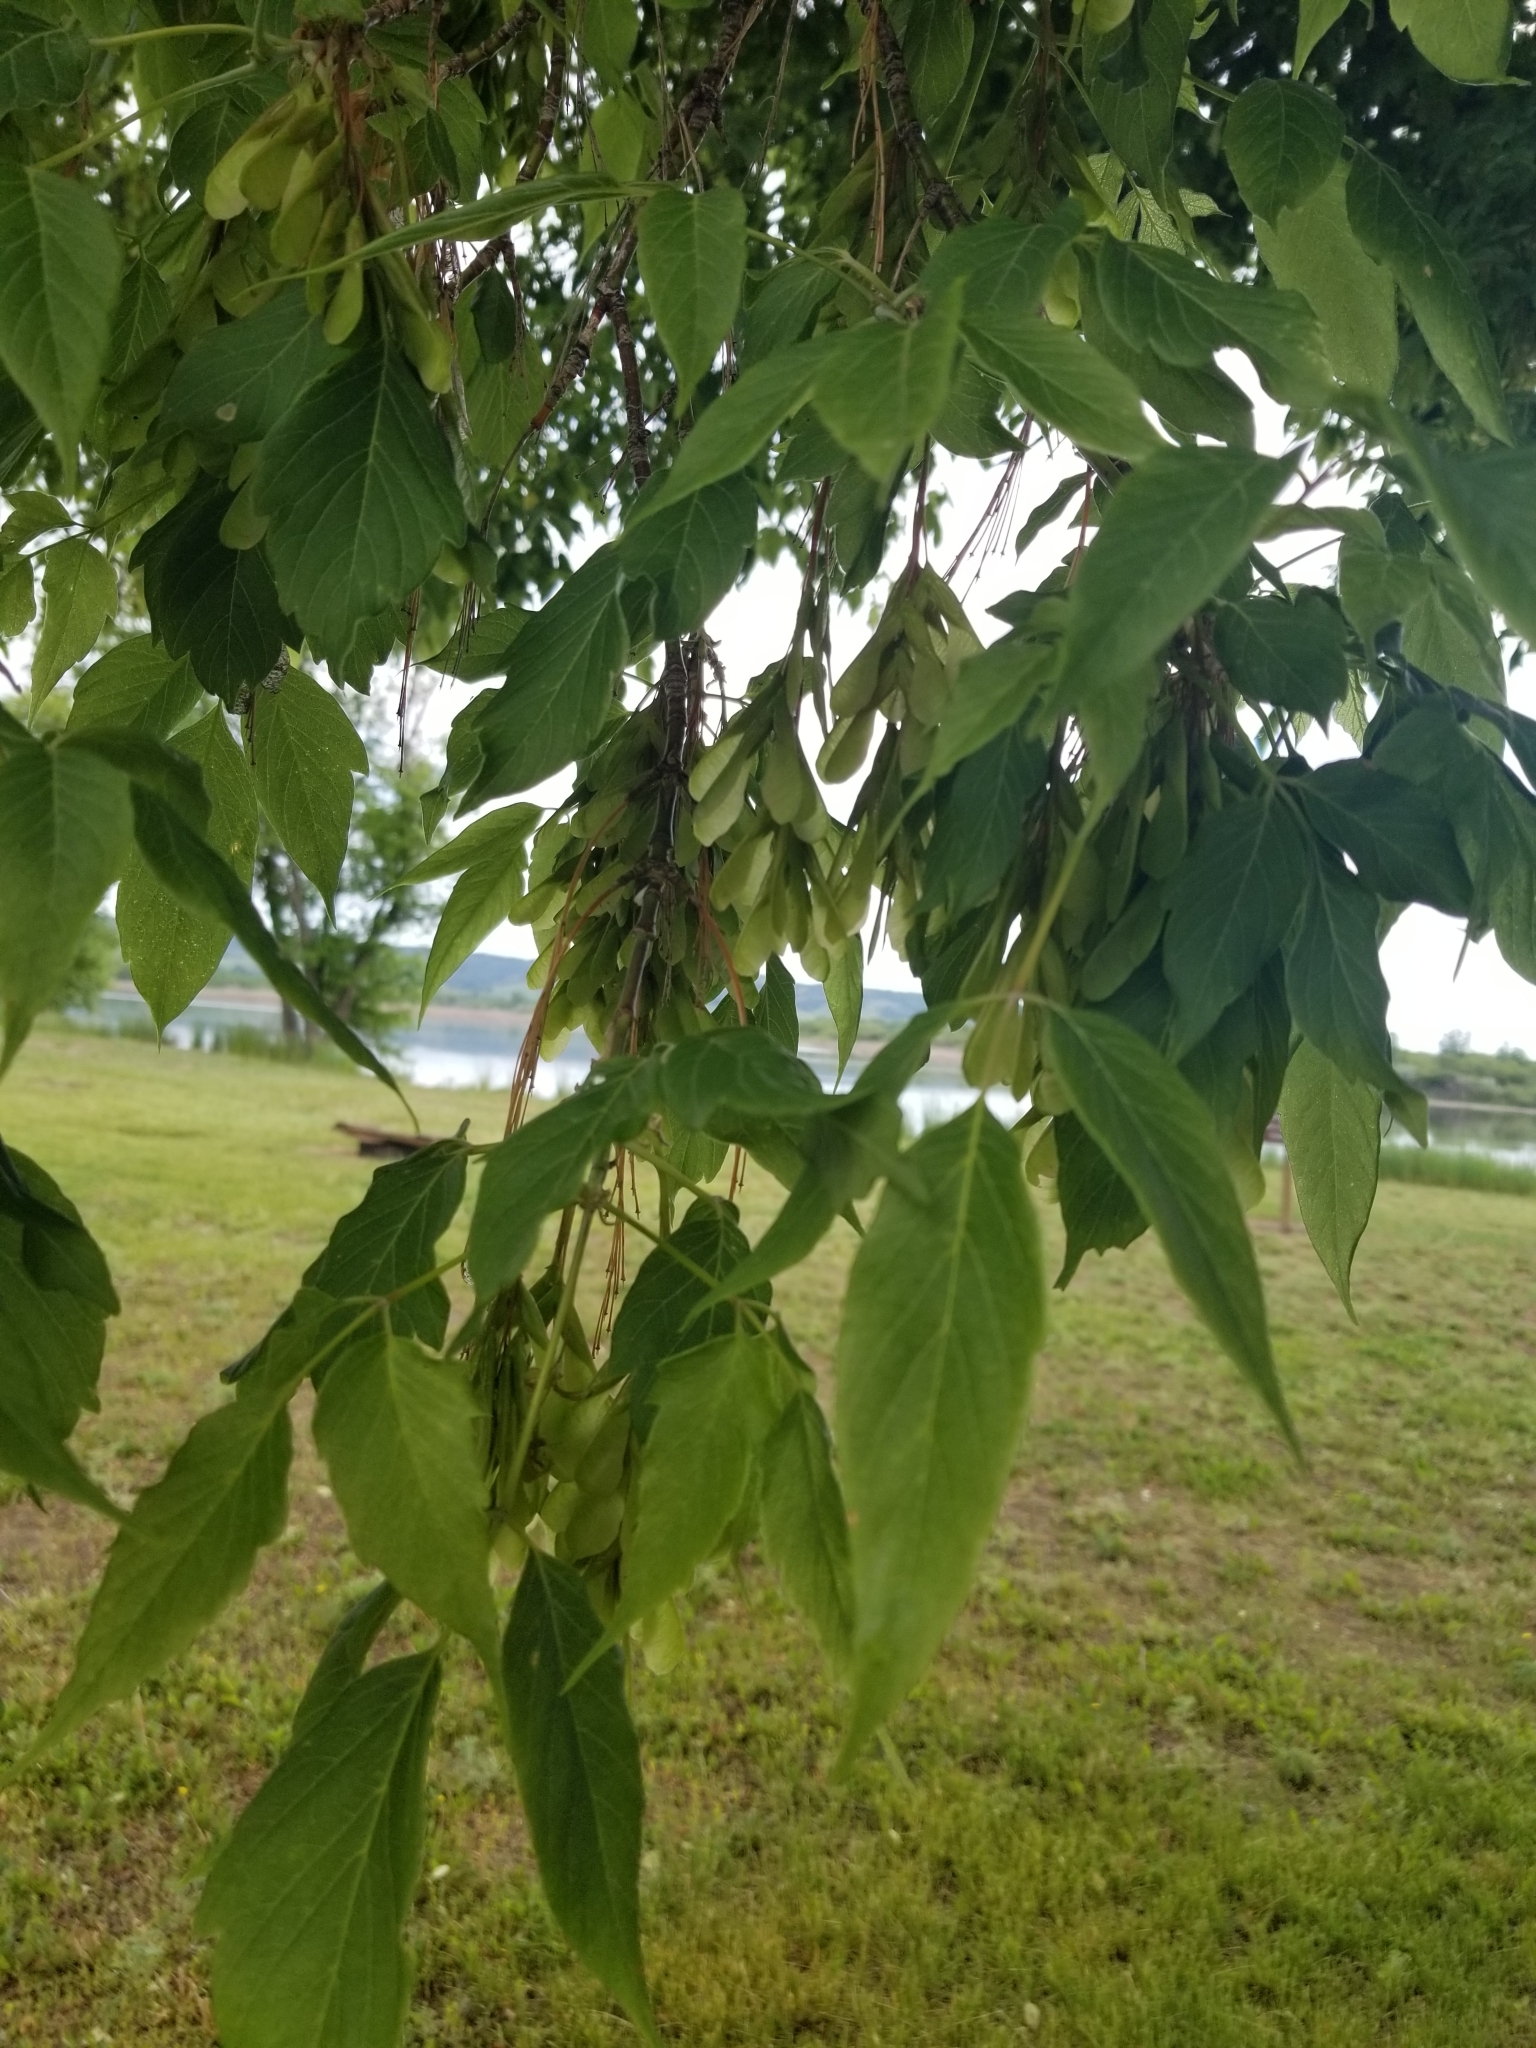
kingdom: Plantae
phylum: Tracheophyta
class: Magnoliopsida
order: Sapindales
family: Sapindaceae
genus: Acer
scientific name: Acer negundo
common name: Ashleaf maple
